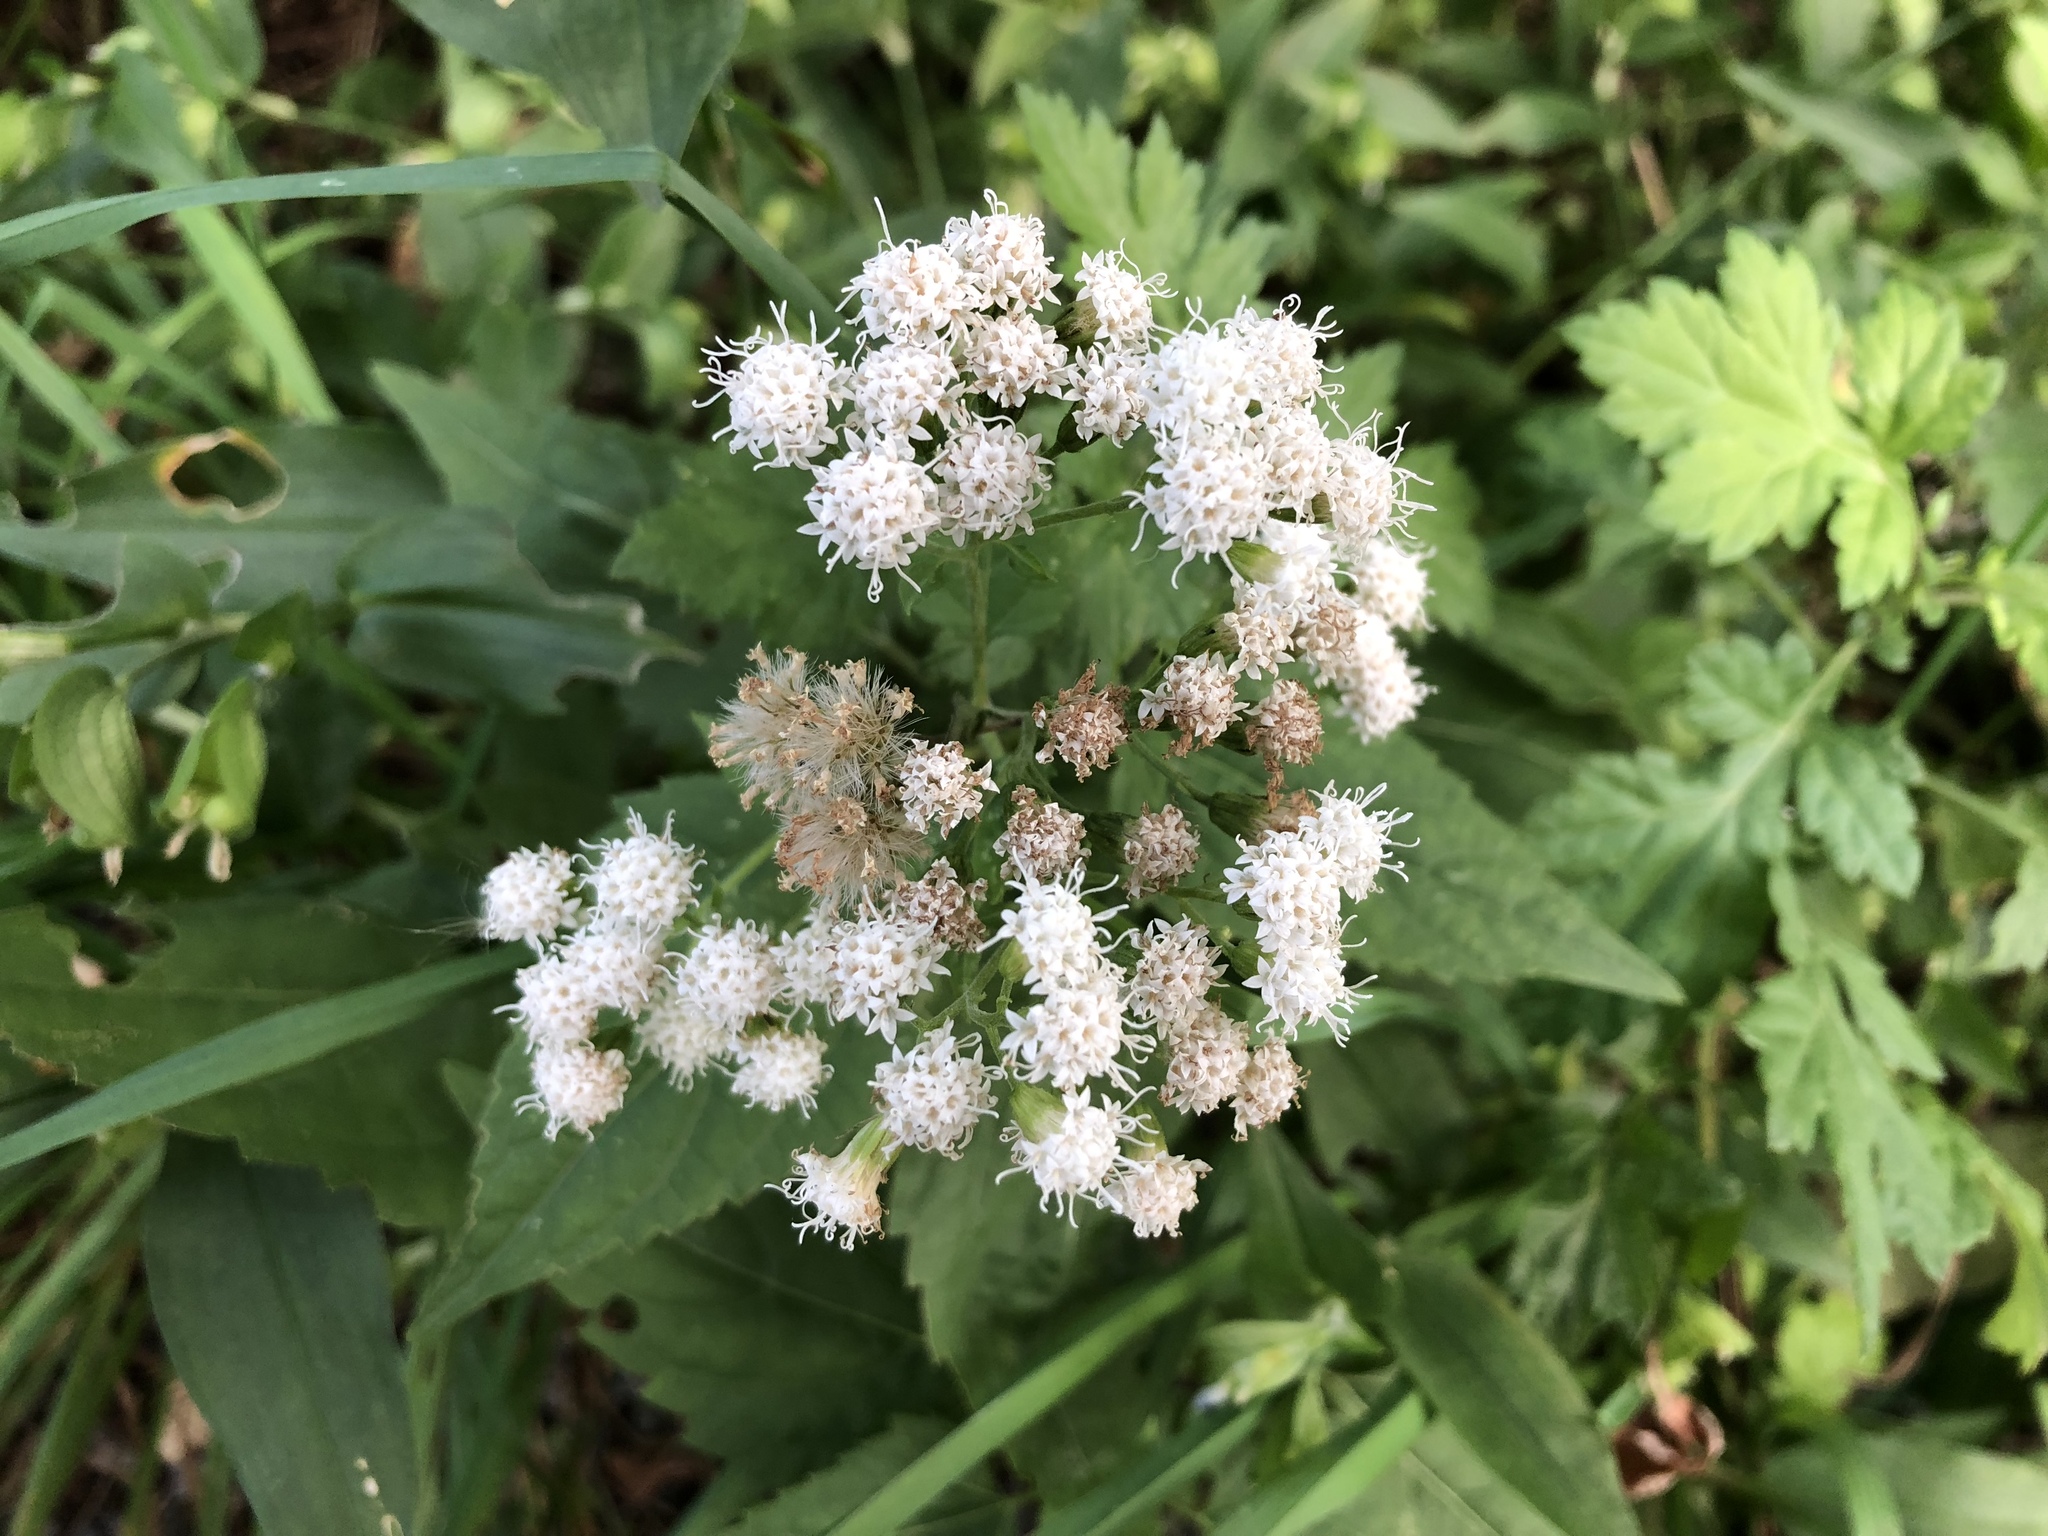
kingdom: Plantae
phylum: Tracheophyta
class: Magnoliopsida
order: Asterales
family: Asteraceae
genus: Ageratina
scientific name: Ageratina altissima
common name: White snakeroot
